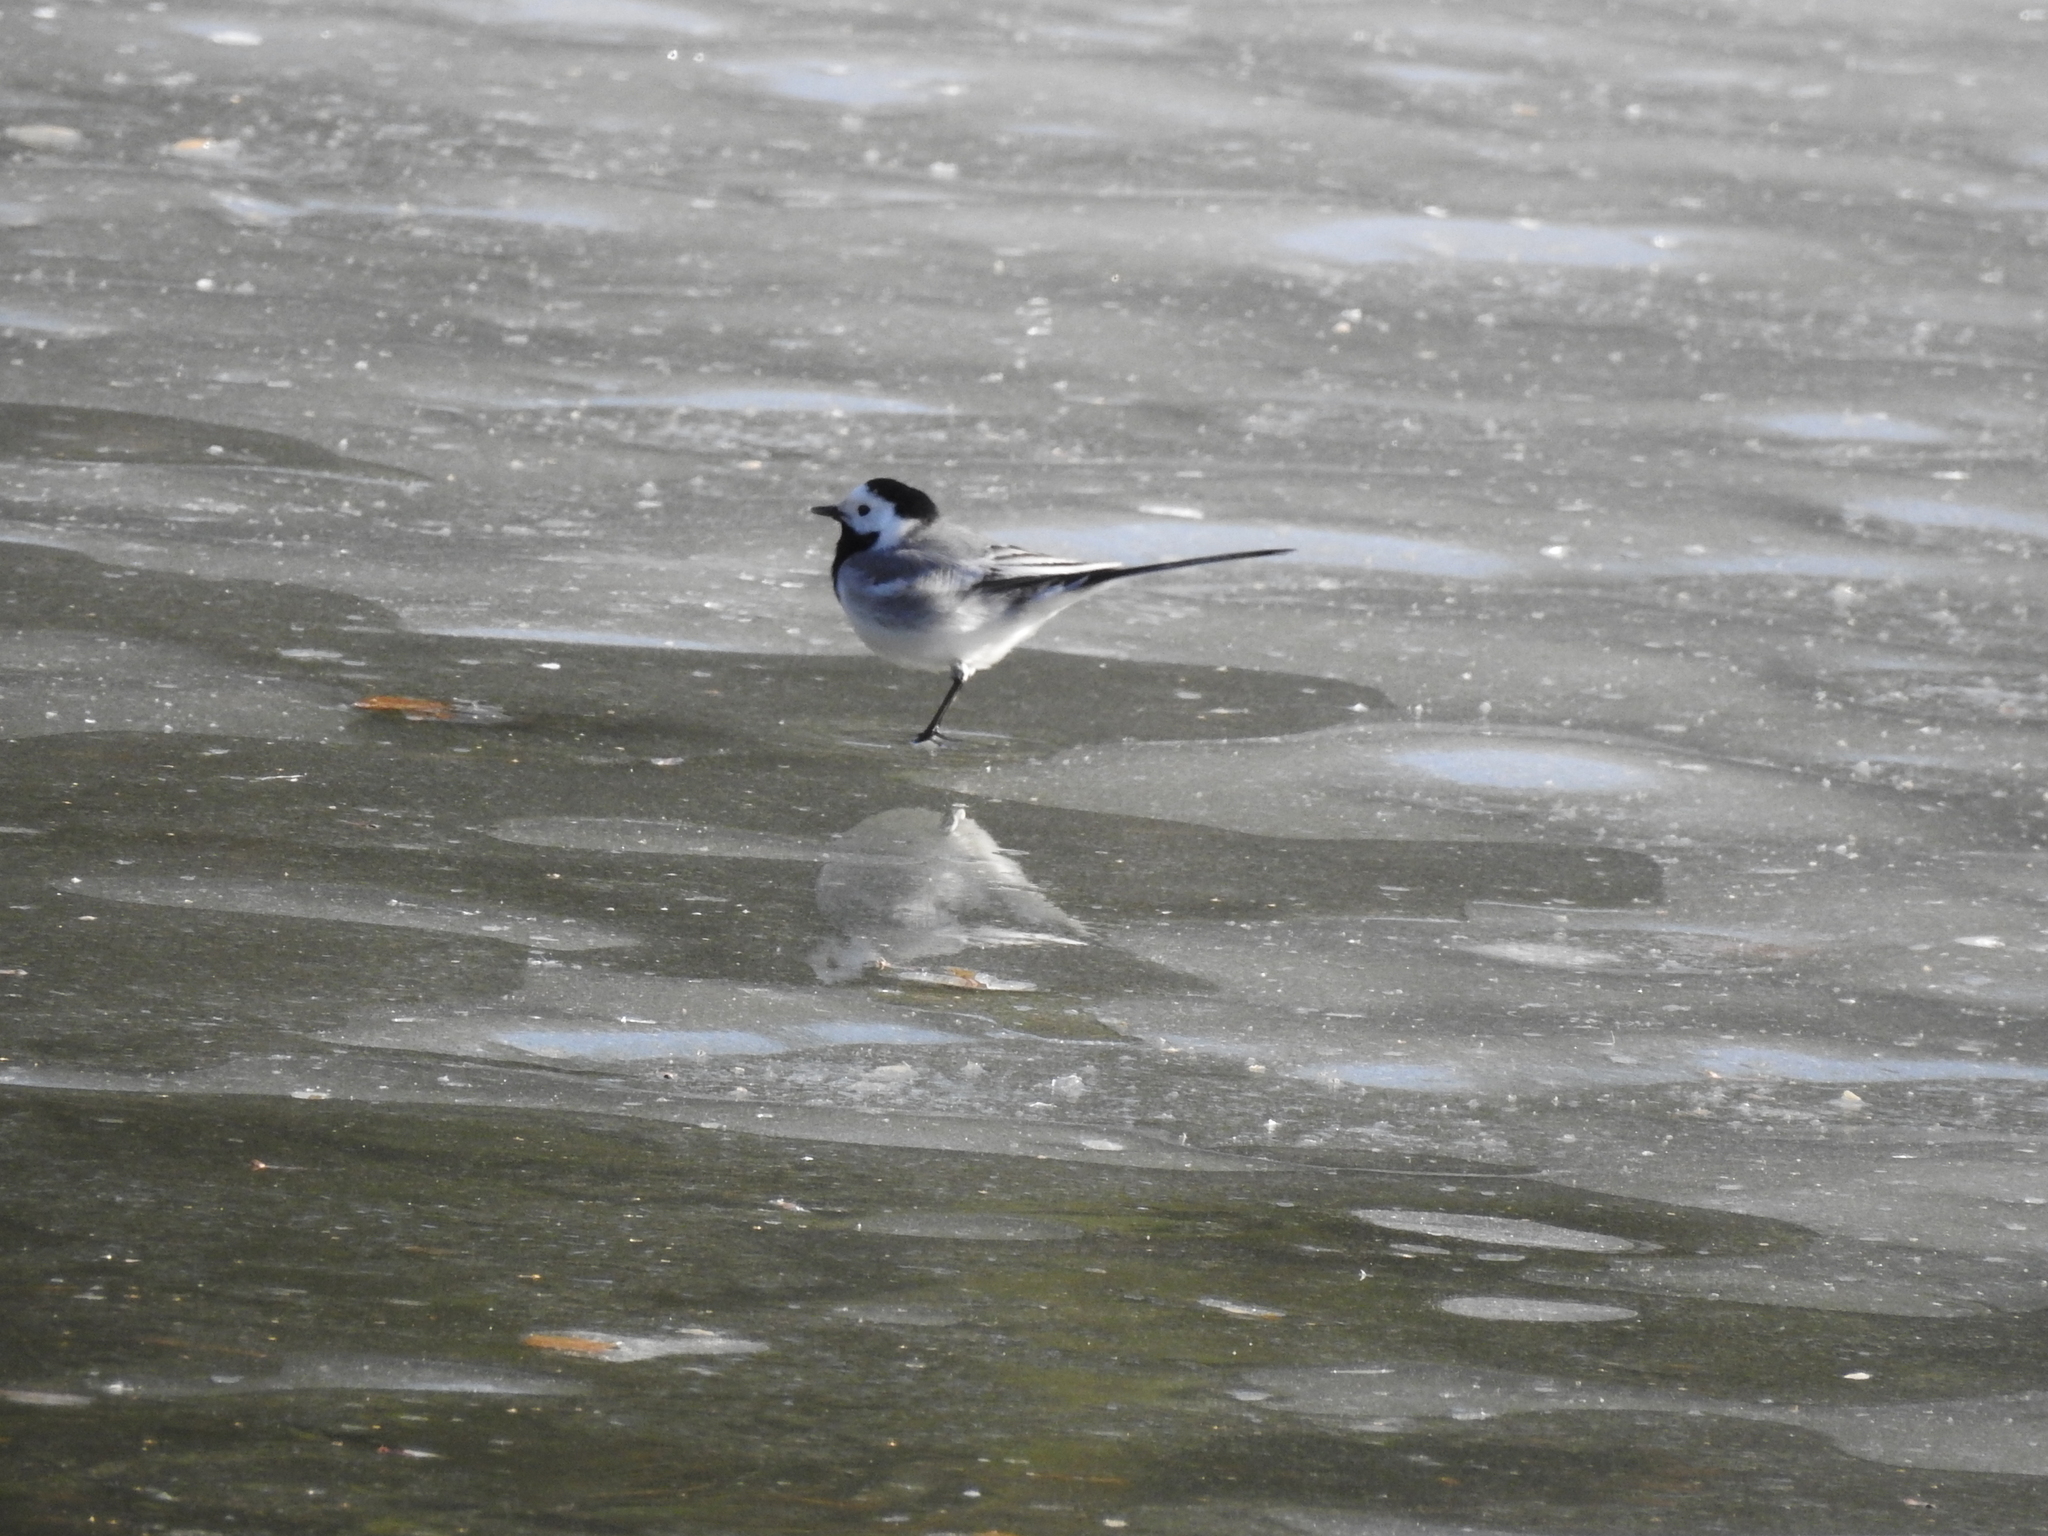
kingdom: Animalia
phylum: Chordata
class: Aves
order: Passeriformes
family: Motacillidae
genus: Motacilla
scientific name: Motacilla alba
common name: White wagtail
